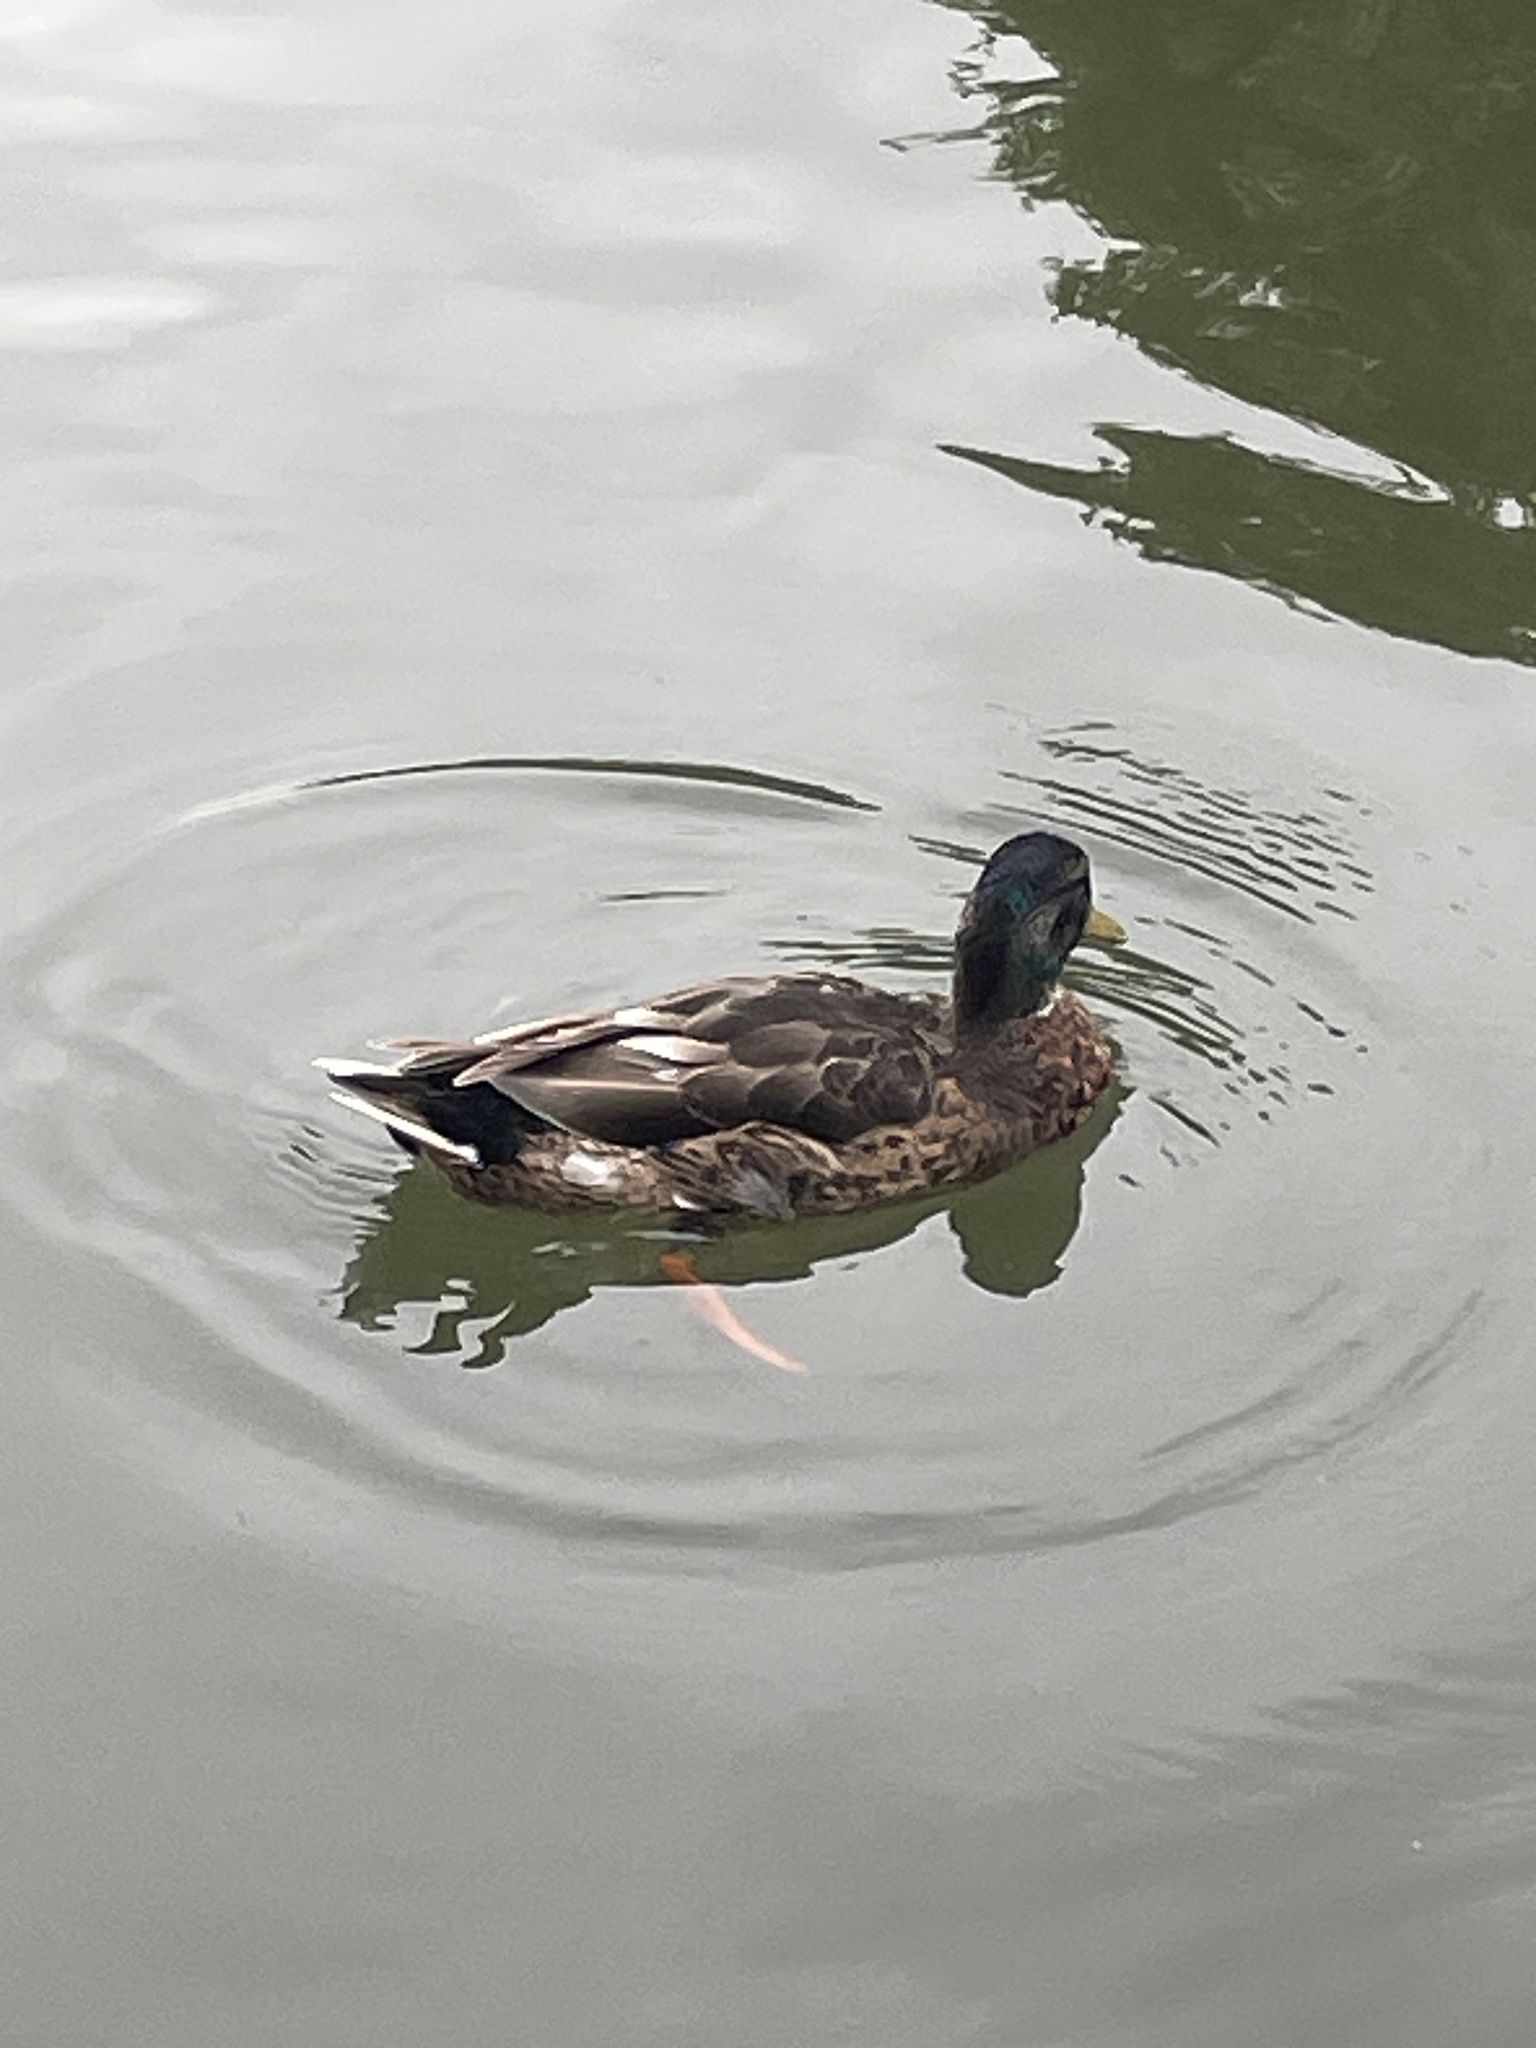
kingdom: Animalia
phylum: Chordata
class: Aves
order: Anseriformes
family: Anatidae
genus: Anas
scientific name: Anas platyrhynchos
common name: Mallard
